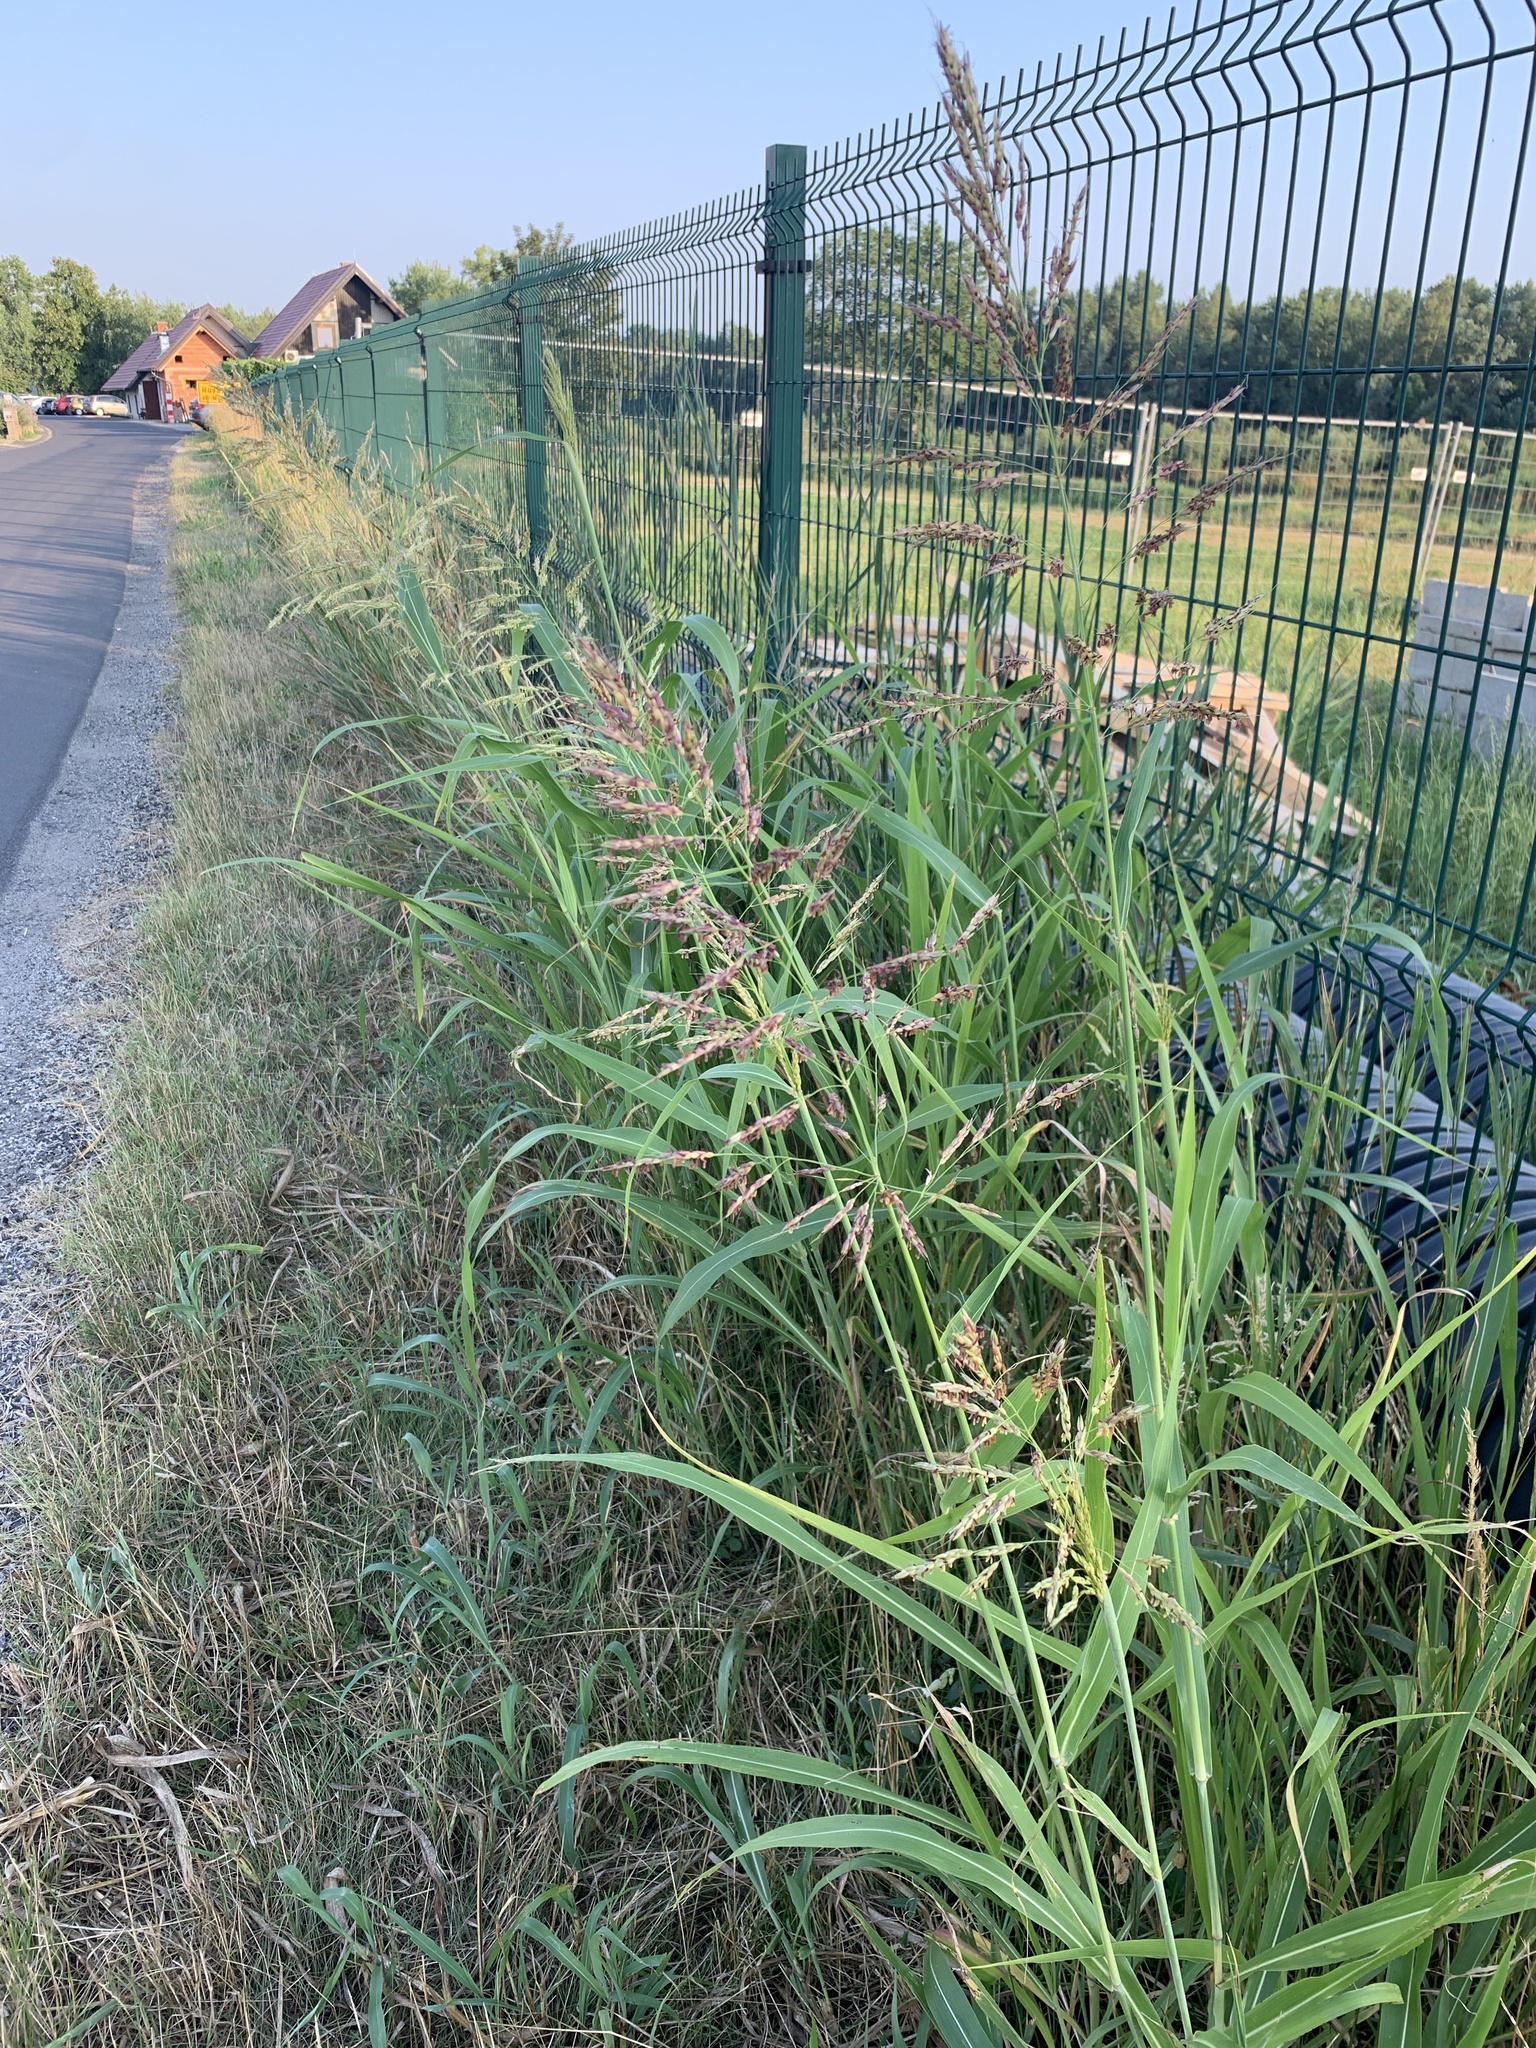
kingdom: Plantae
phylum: Tracheophyta
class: Liliopsida
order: Poales
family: Poaceae
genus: Sorghum
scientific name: Sorghum halepense
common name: Johnson-grass
